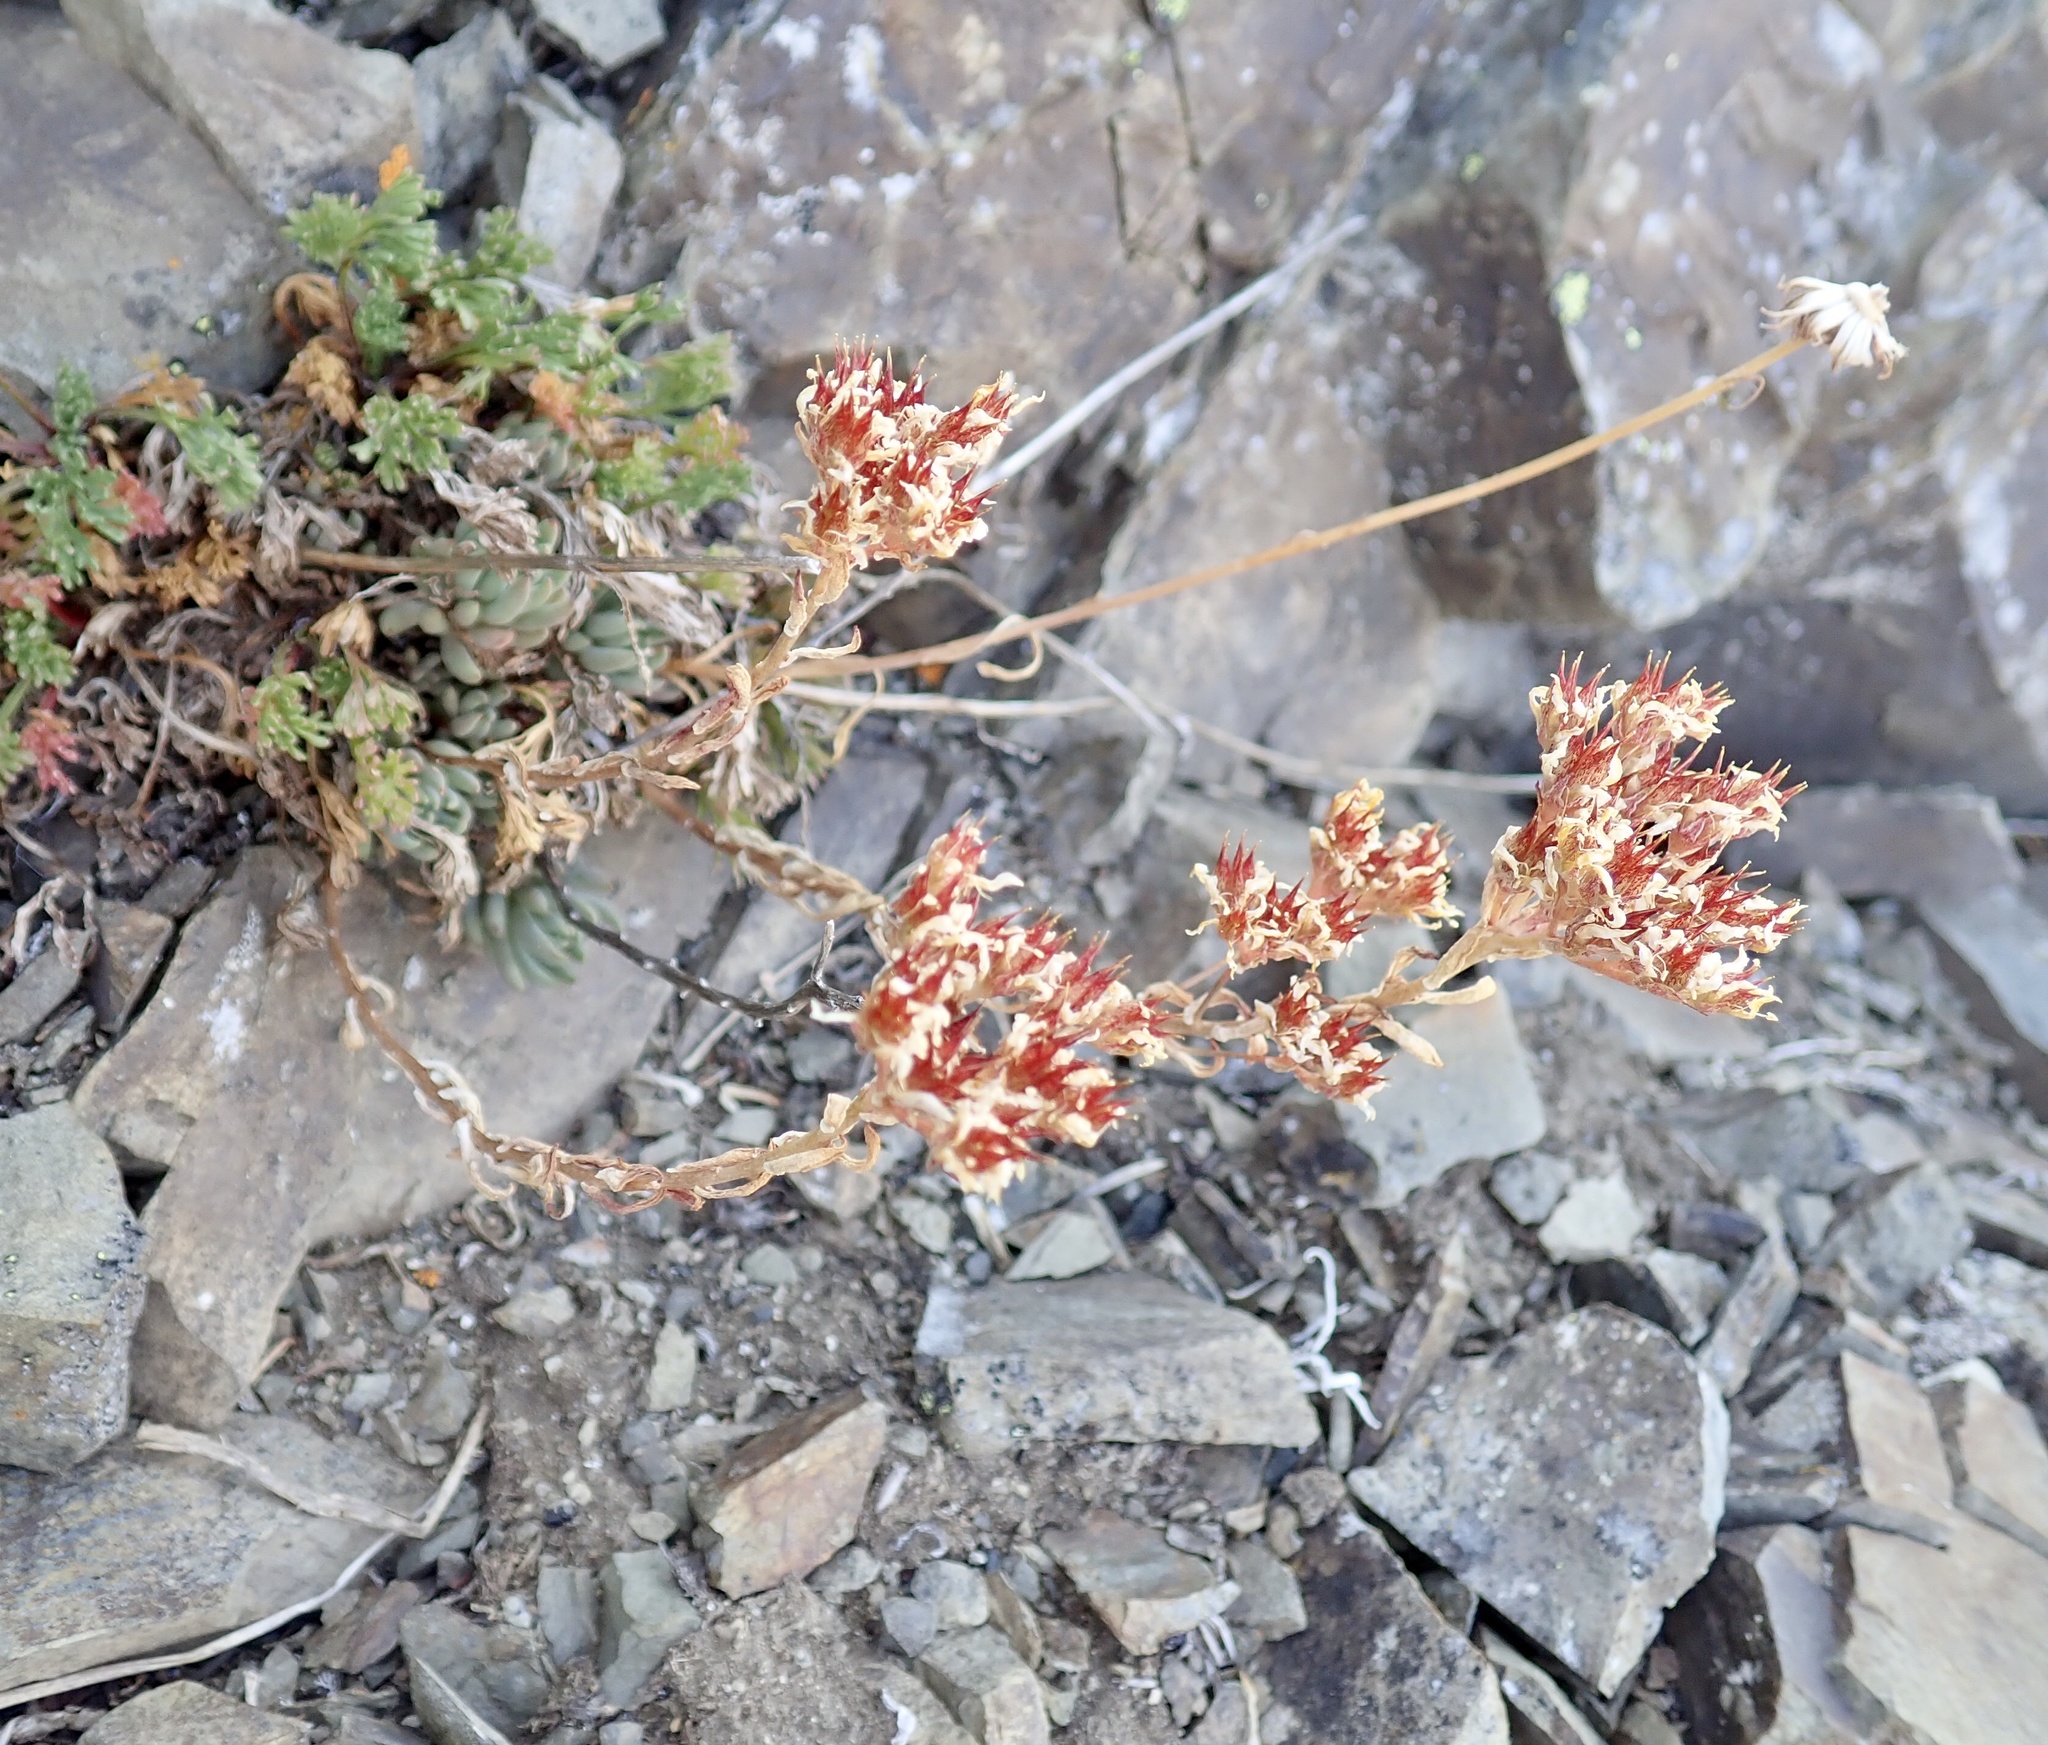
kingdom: Plantae
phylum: Tracheophyta
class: Magnoliopsida
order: Saxifragales
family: Crassulaceae
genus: Sedum
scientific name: Sedum lanceolatum
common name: Common stonecrop
